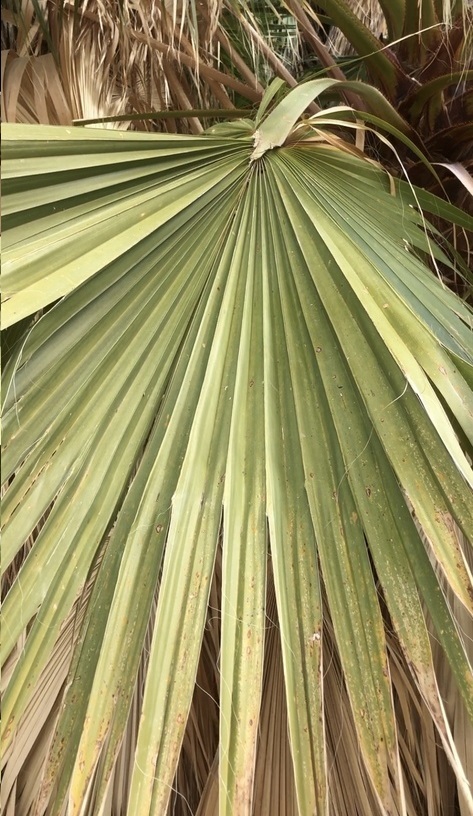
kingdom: Plantae
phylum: Tracheophyta
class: Liliopsida
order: Arecales
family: Arecaceae
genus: Washingtonia
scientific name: Washingtonia filifera
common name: California fan palm
